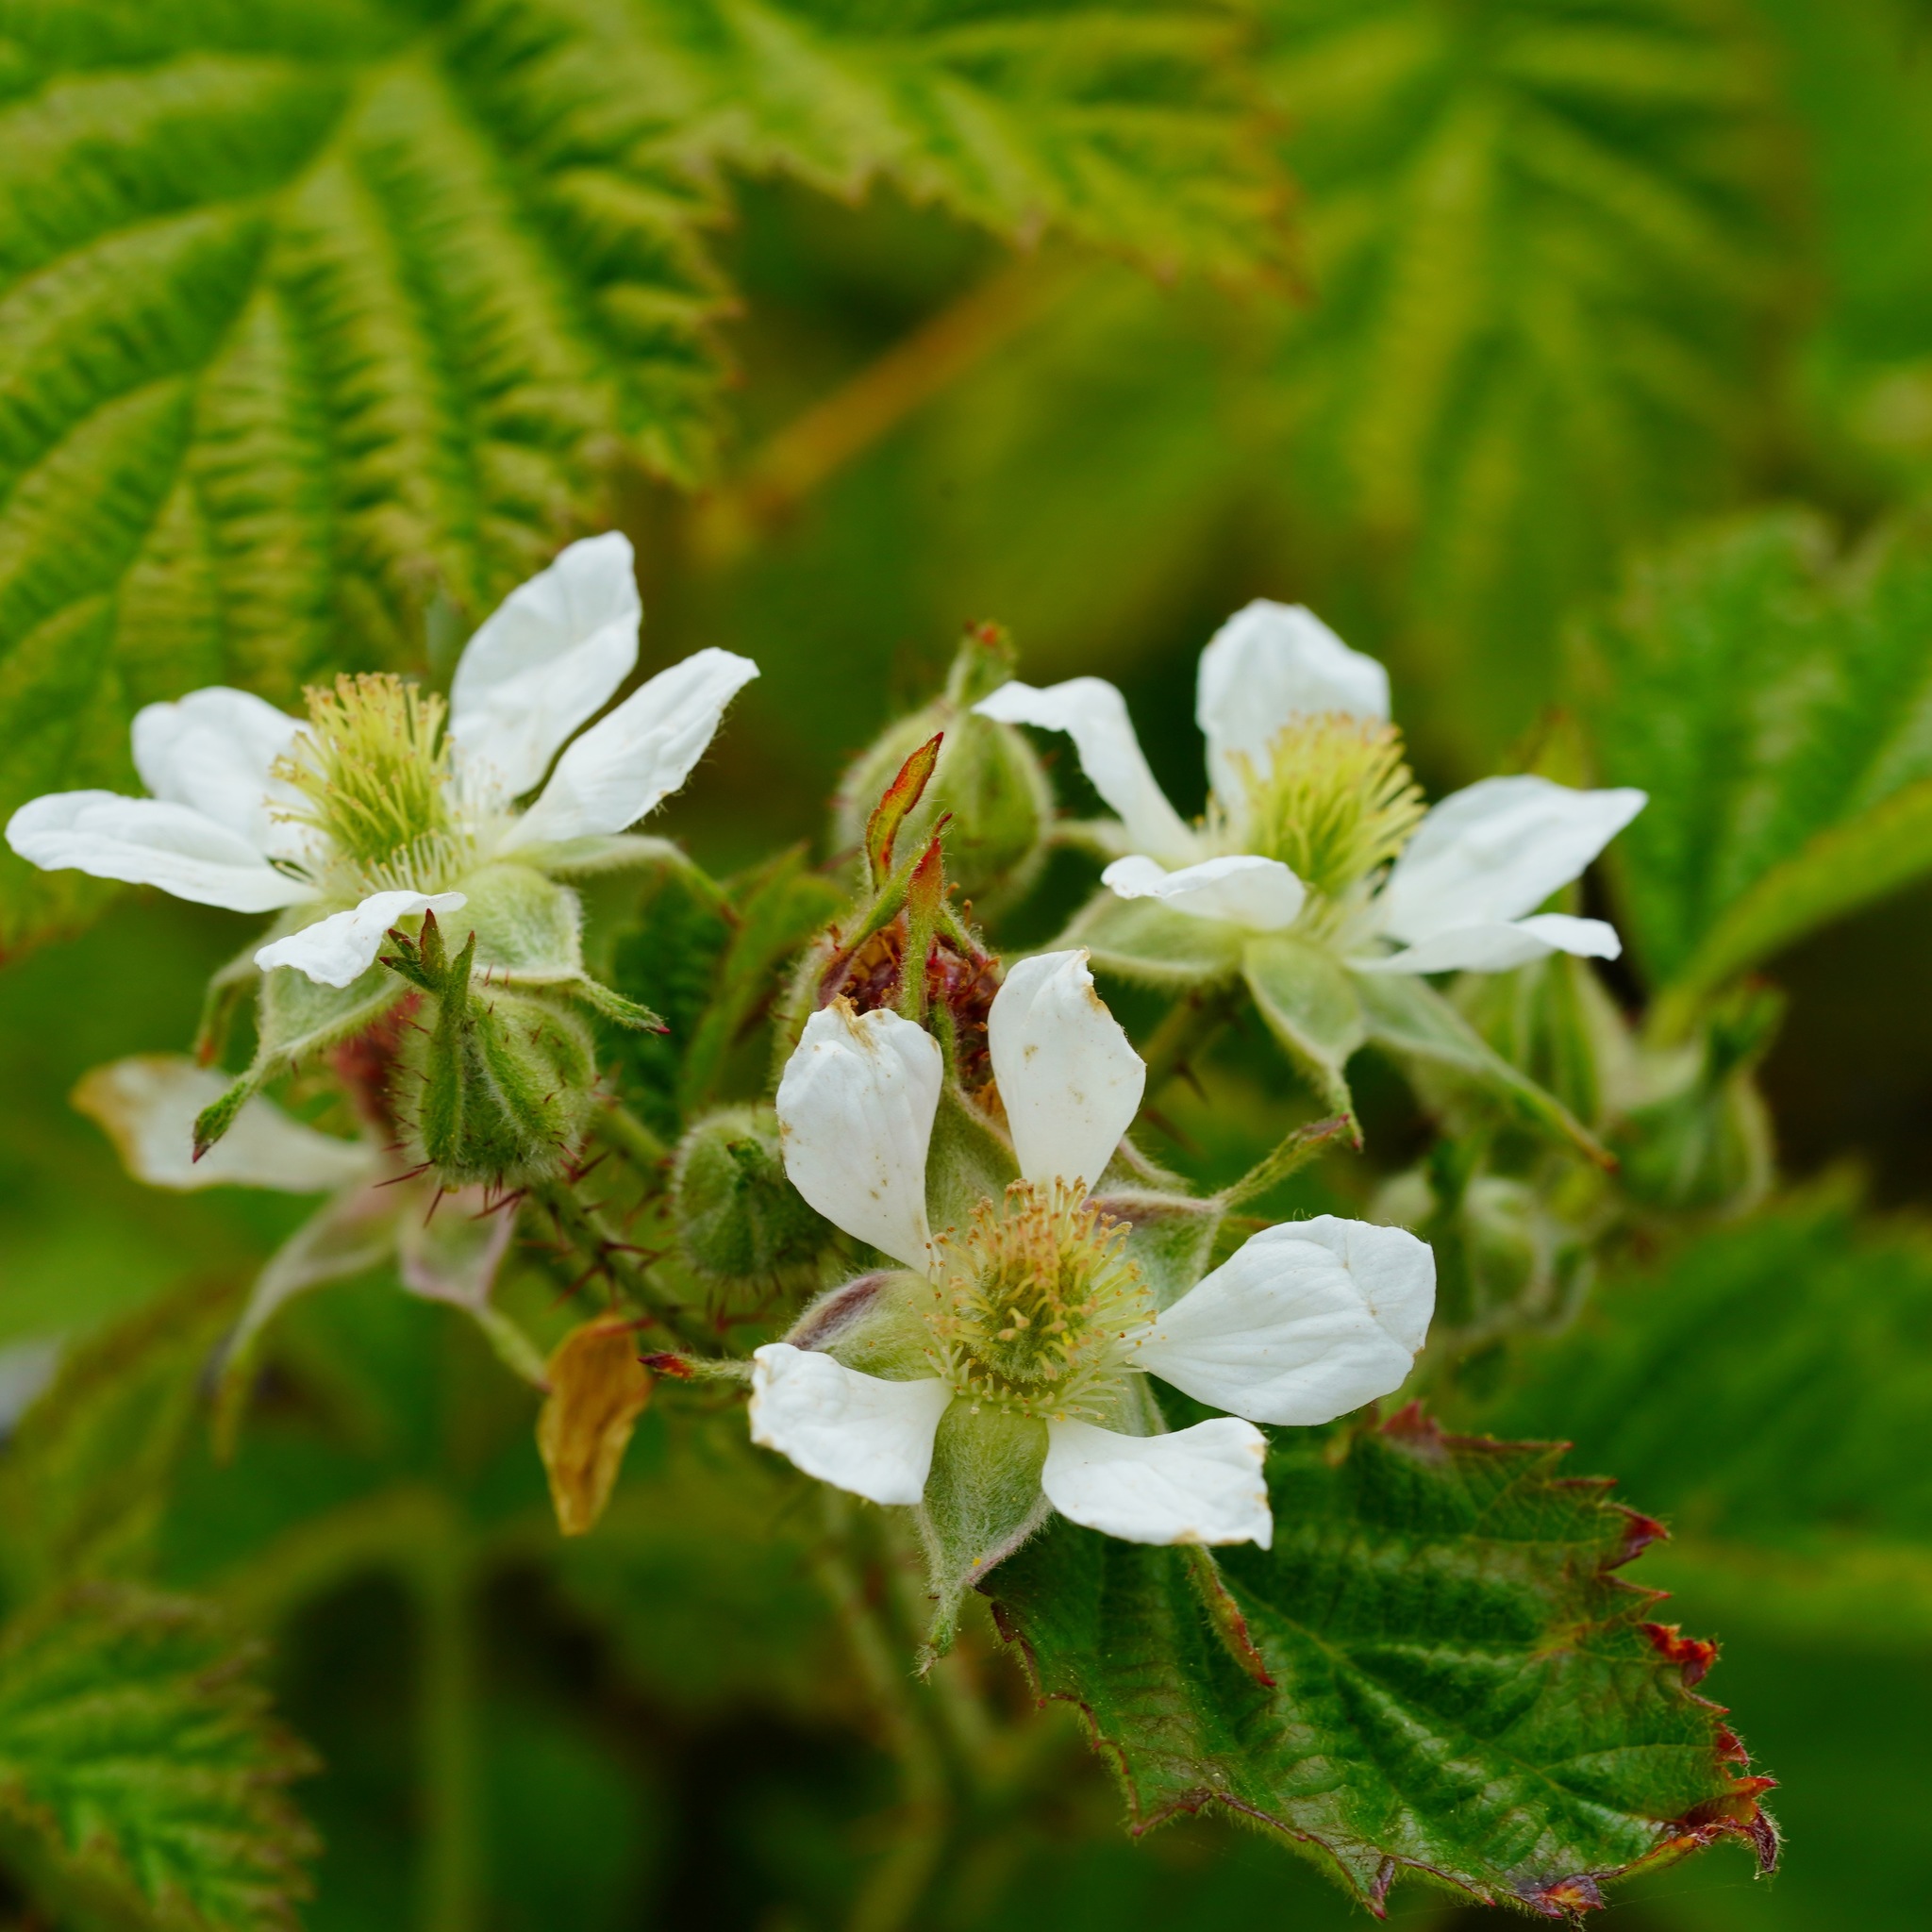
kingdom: Plantae
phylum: Tracheophyta
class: Magnoliopsida
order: Rosales
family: Rosaceae
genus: Rubus
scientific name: Rubus ursinus
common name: Pacific blackberry
